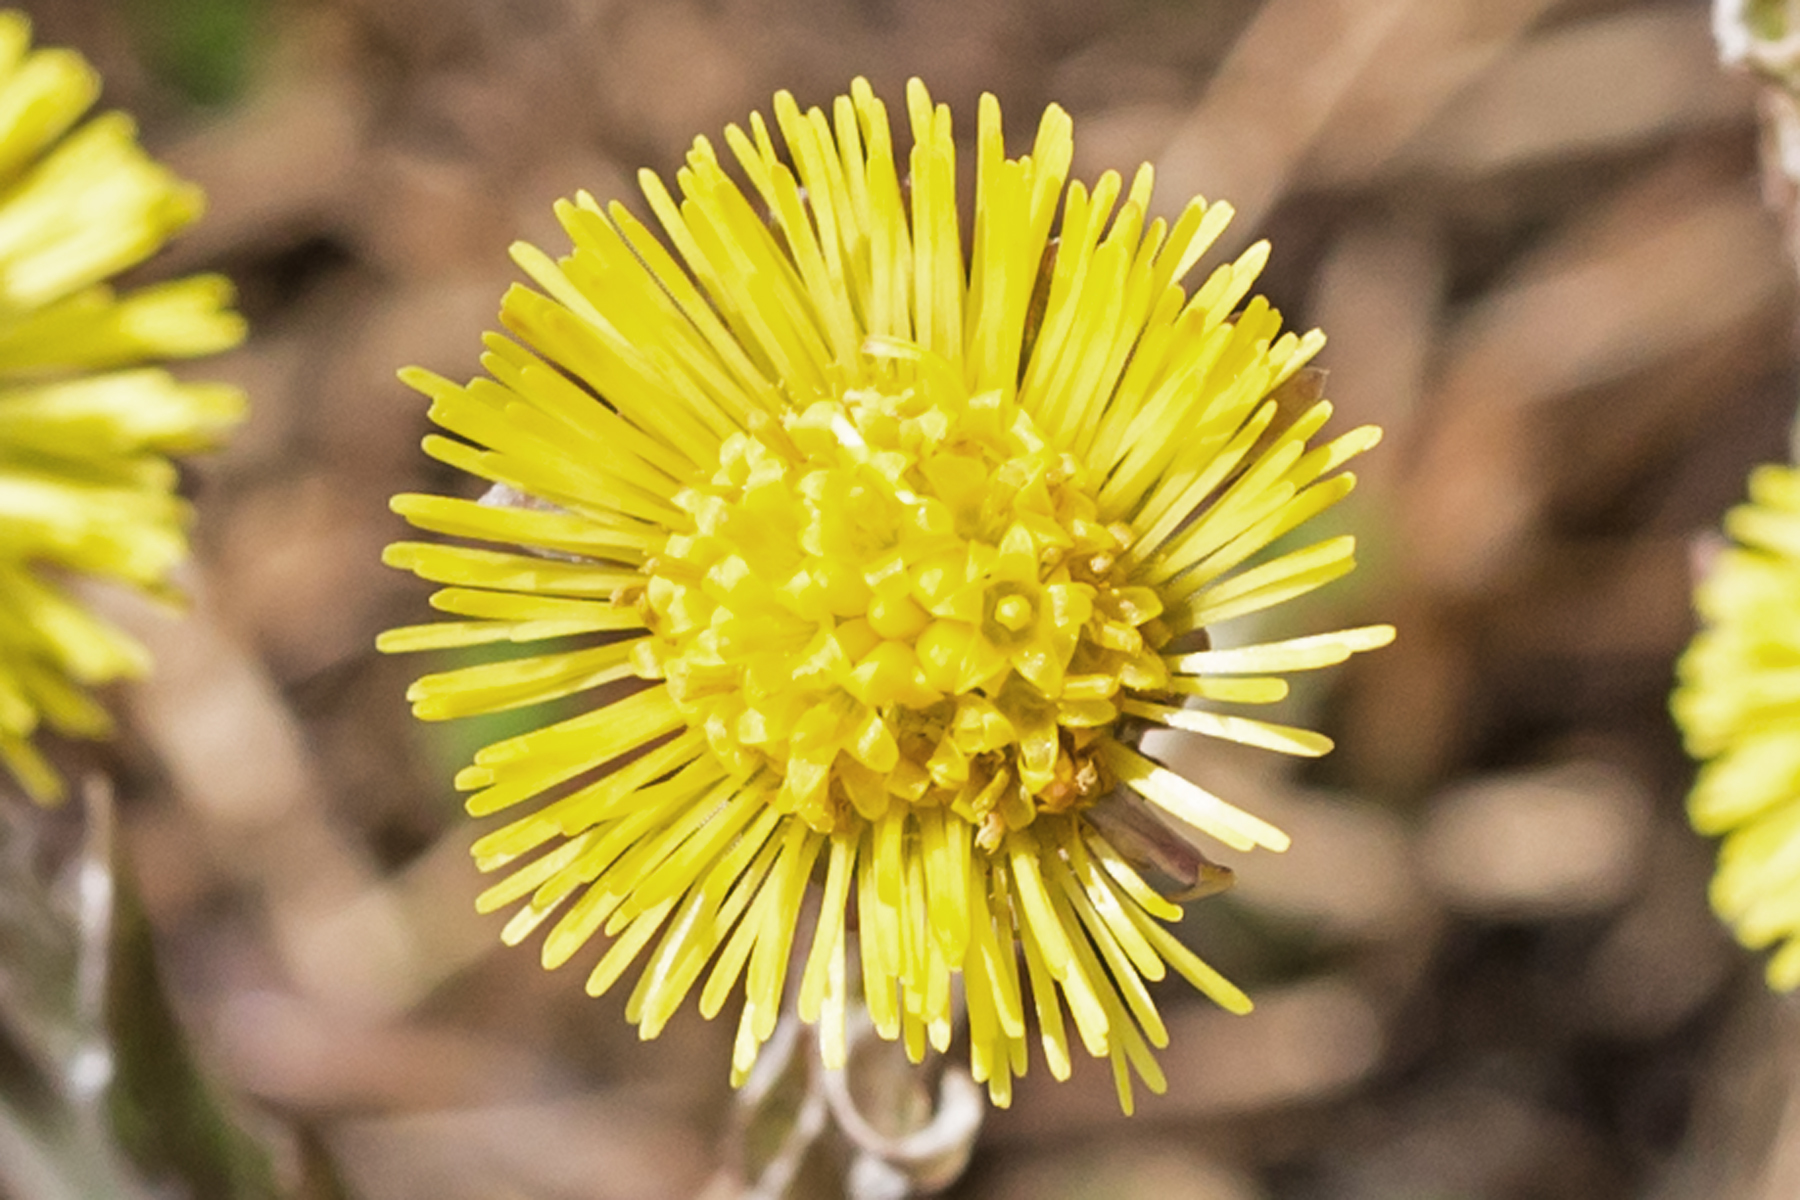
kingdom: Plantae
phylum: Tracheophyta
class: Magnoliopsida
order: Asterales
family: Asteraceae
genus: Tussilago
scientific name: Tussilago farfara
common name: Coltsfoot
